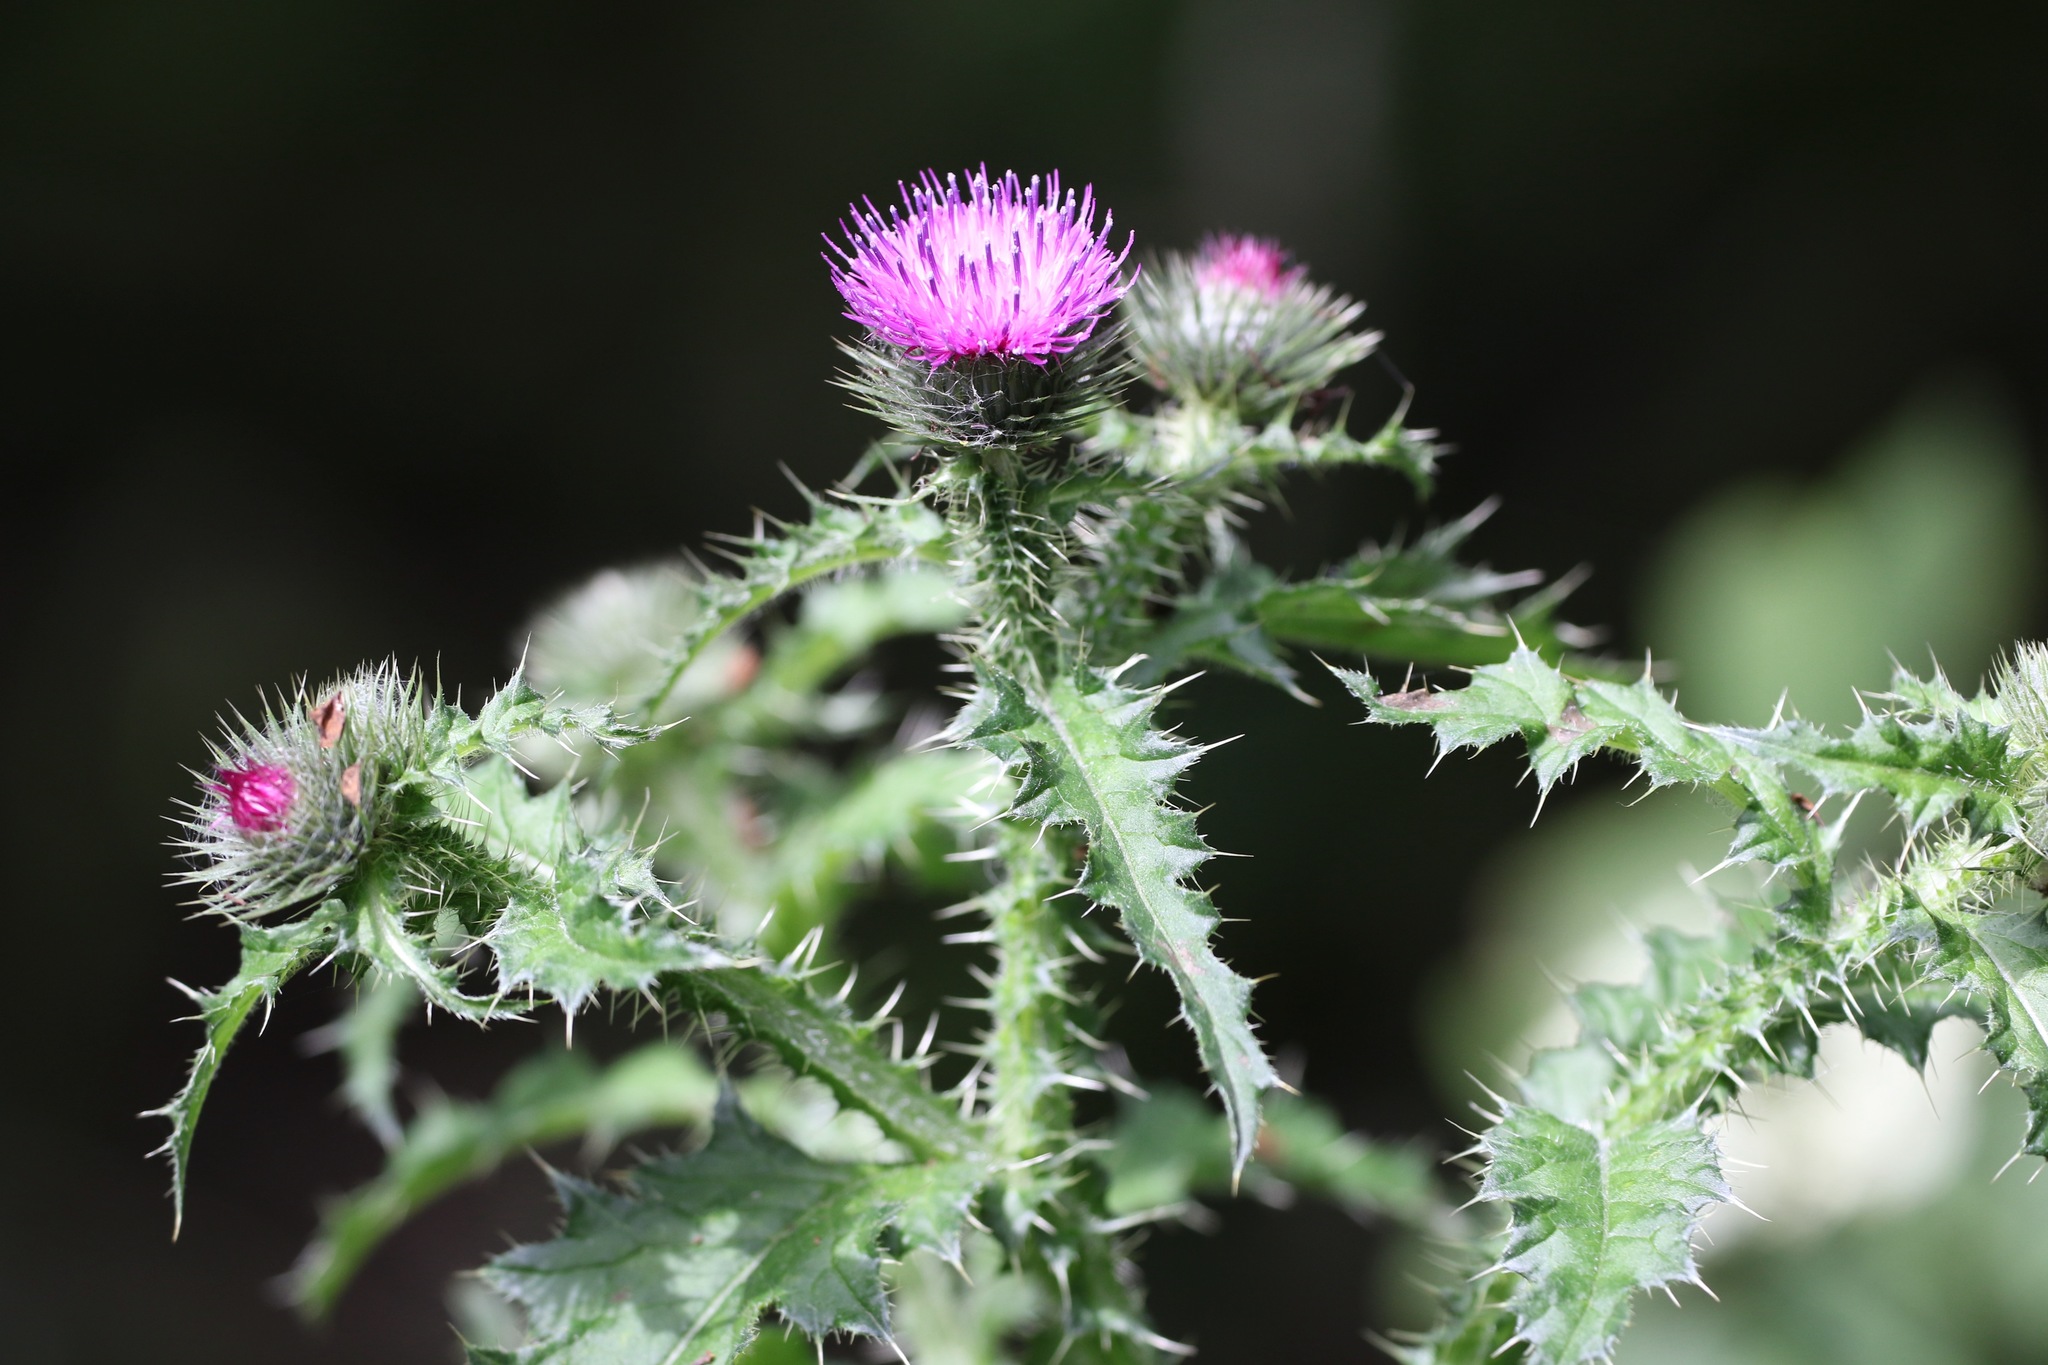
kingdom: Plantae
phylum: Tracheophyta
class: Magnoliopsida
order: Asterales
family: Asteraceae
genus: Carduus
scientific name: Carduus crispus
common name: Welted thistle
